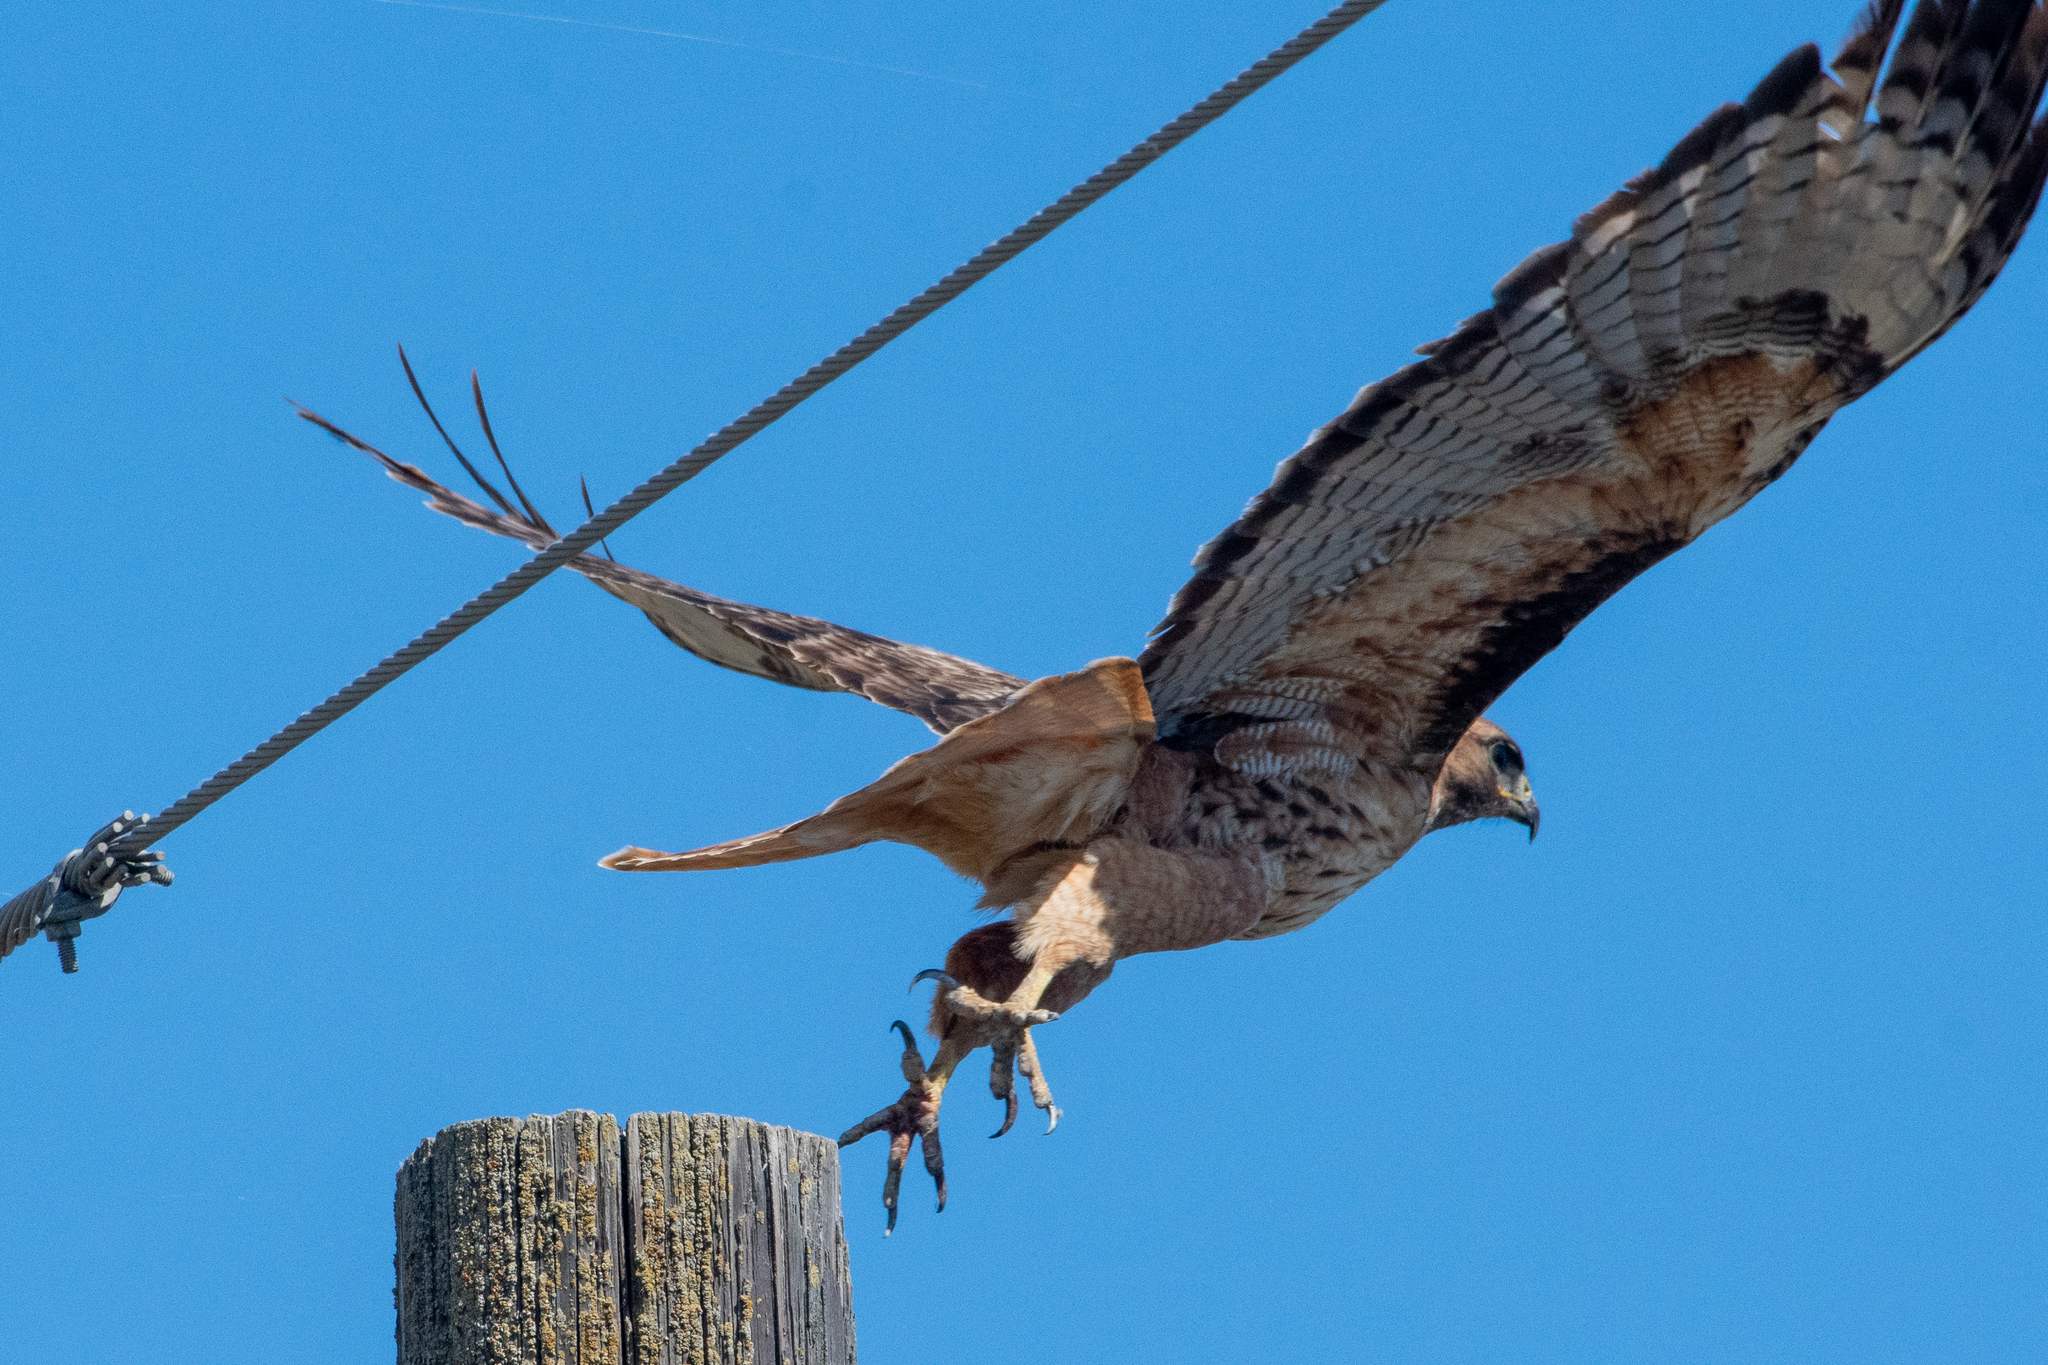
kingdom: Animalia
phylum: Chordata
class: Aves
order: Accipitriformes
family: Accipitridae
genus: Buteo
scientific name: Buteo jamaicensis
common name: Red-tailed hawk
